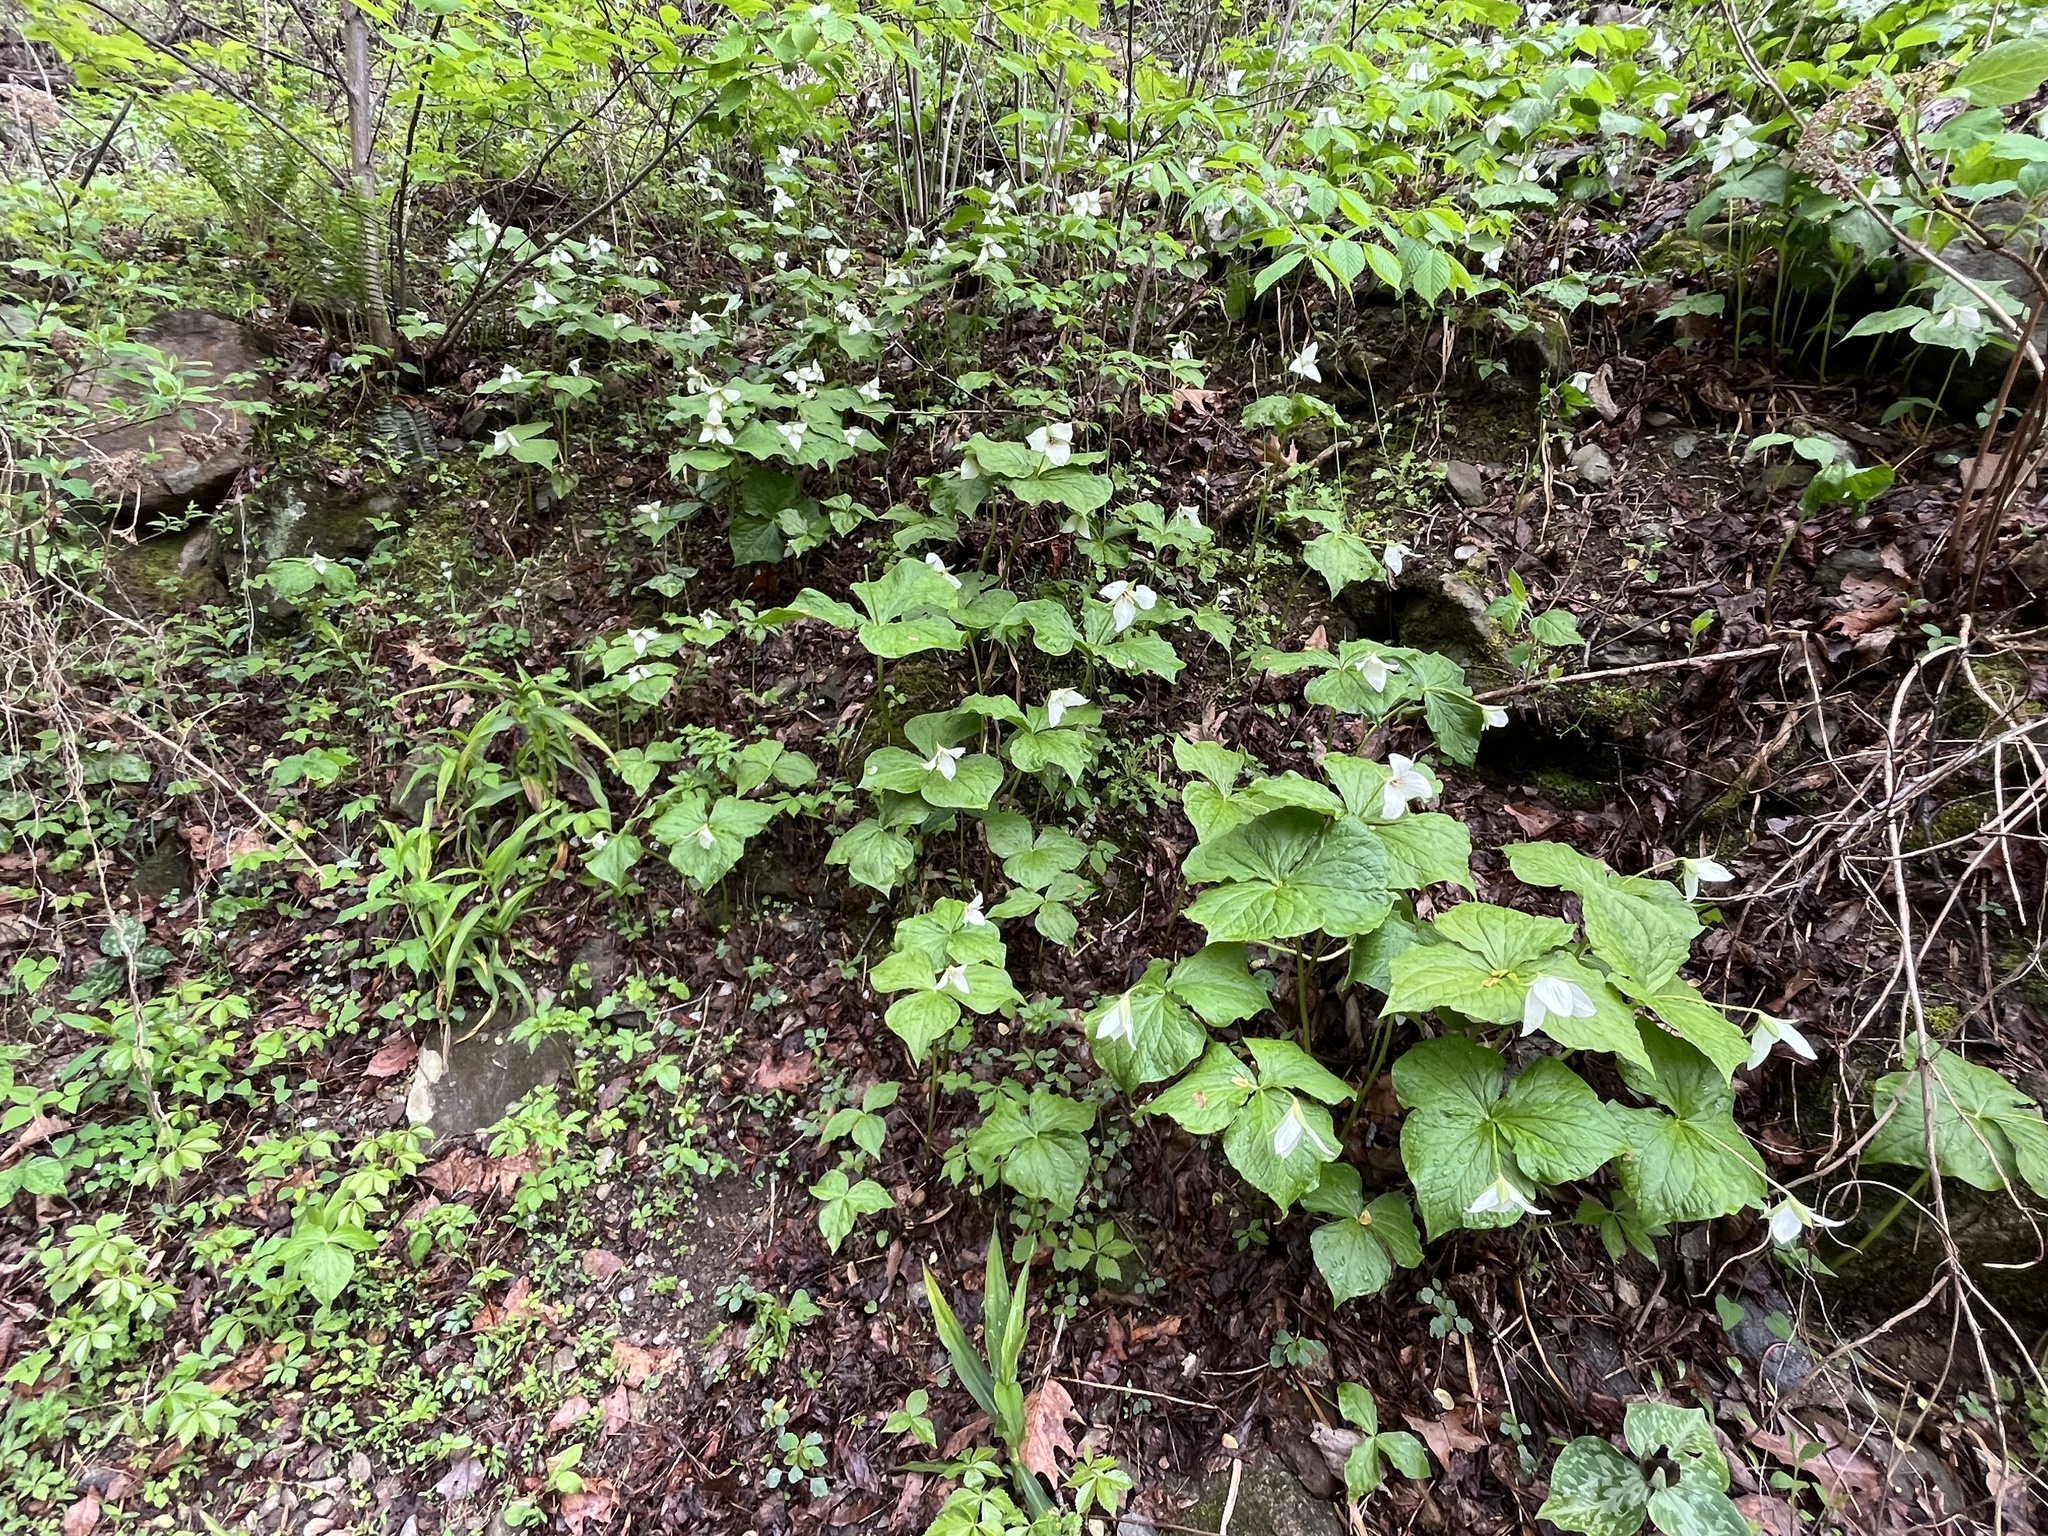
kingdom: Plantae
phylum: Tracheophyta
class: Liliopsida
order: Liliales
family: Melanthiaceae
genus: Trillium
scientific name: Trillium simile
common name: Confusing trillium
